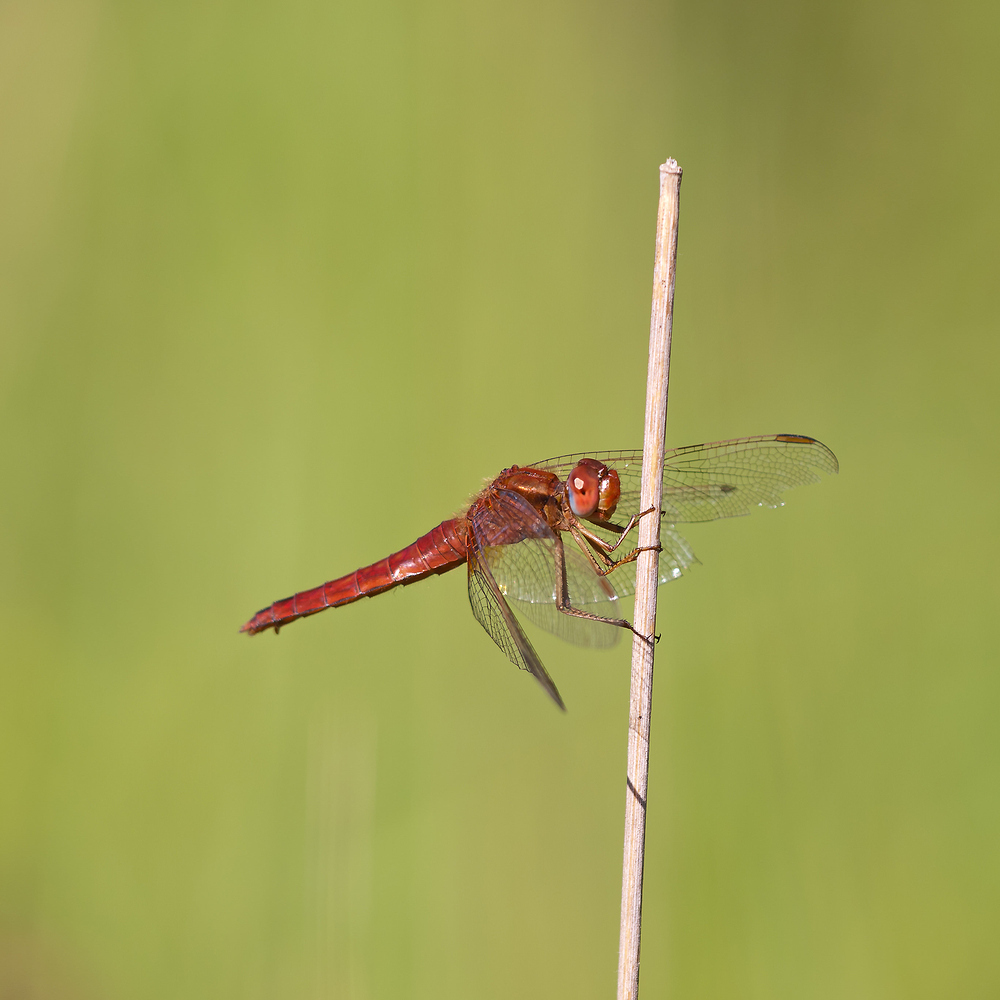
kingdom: Animalia
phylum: Arthropoda
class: Insecta
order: Odonata
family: Libellulidae
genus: Crocothemis
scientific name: Crocothemis erythraea
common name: Scarlet dragonfly
